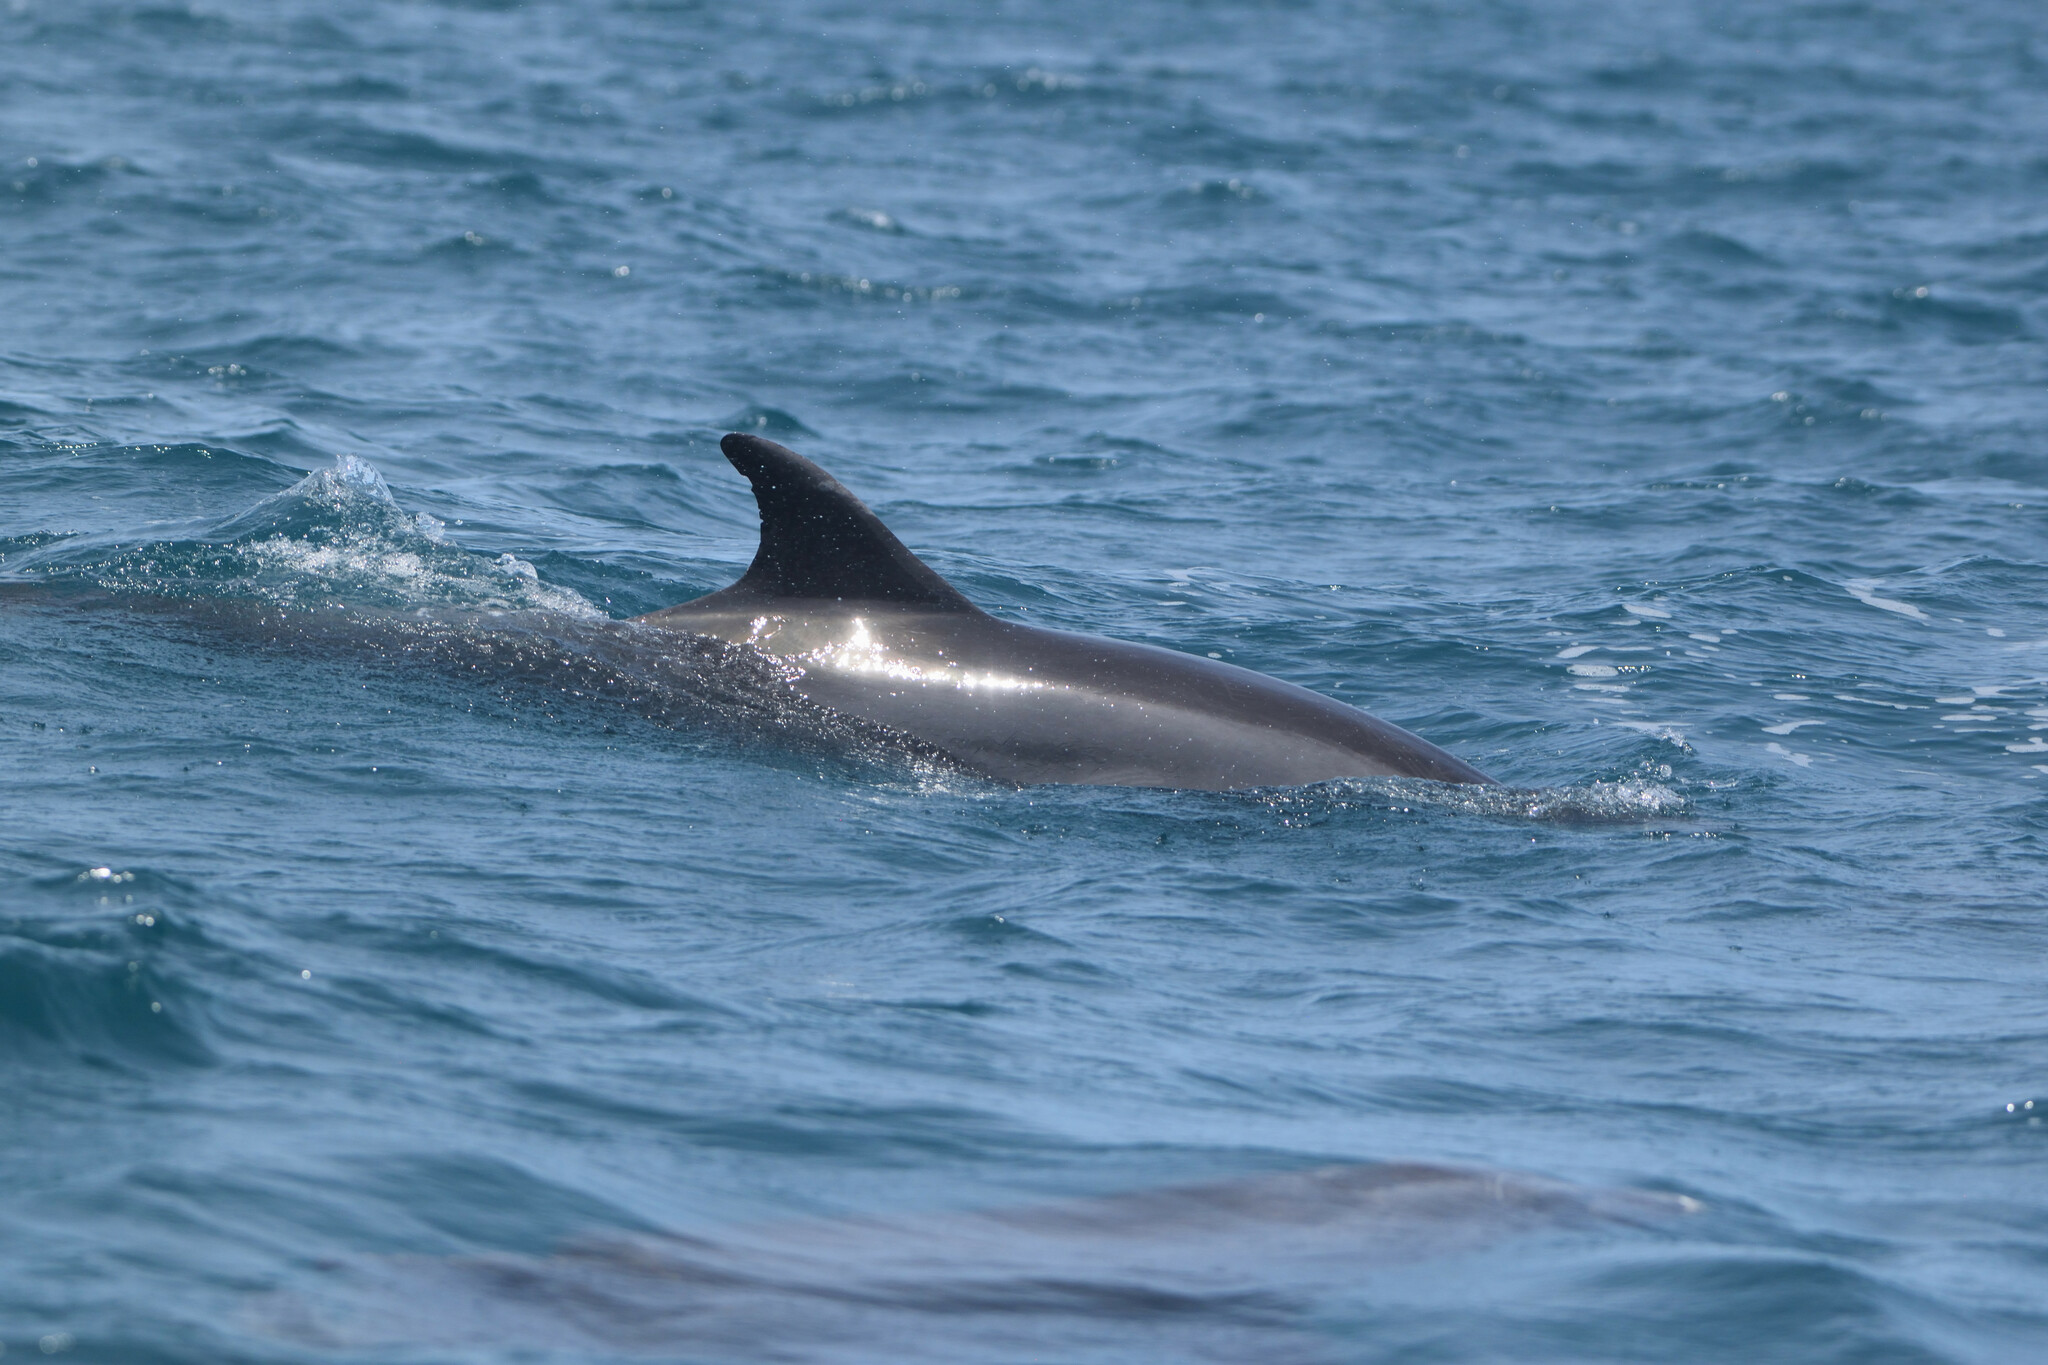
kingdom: Animalia
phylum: Chordata
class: Mammalia
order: Cetacea
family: Delphinidae
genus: Tursiops
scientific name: Tursiops truncatus
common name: Bottlenose dolphin
